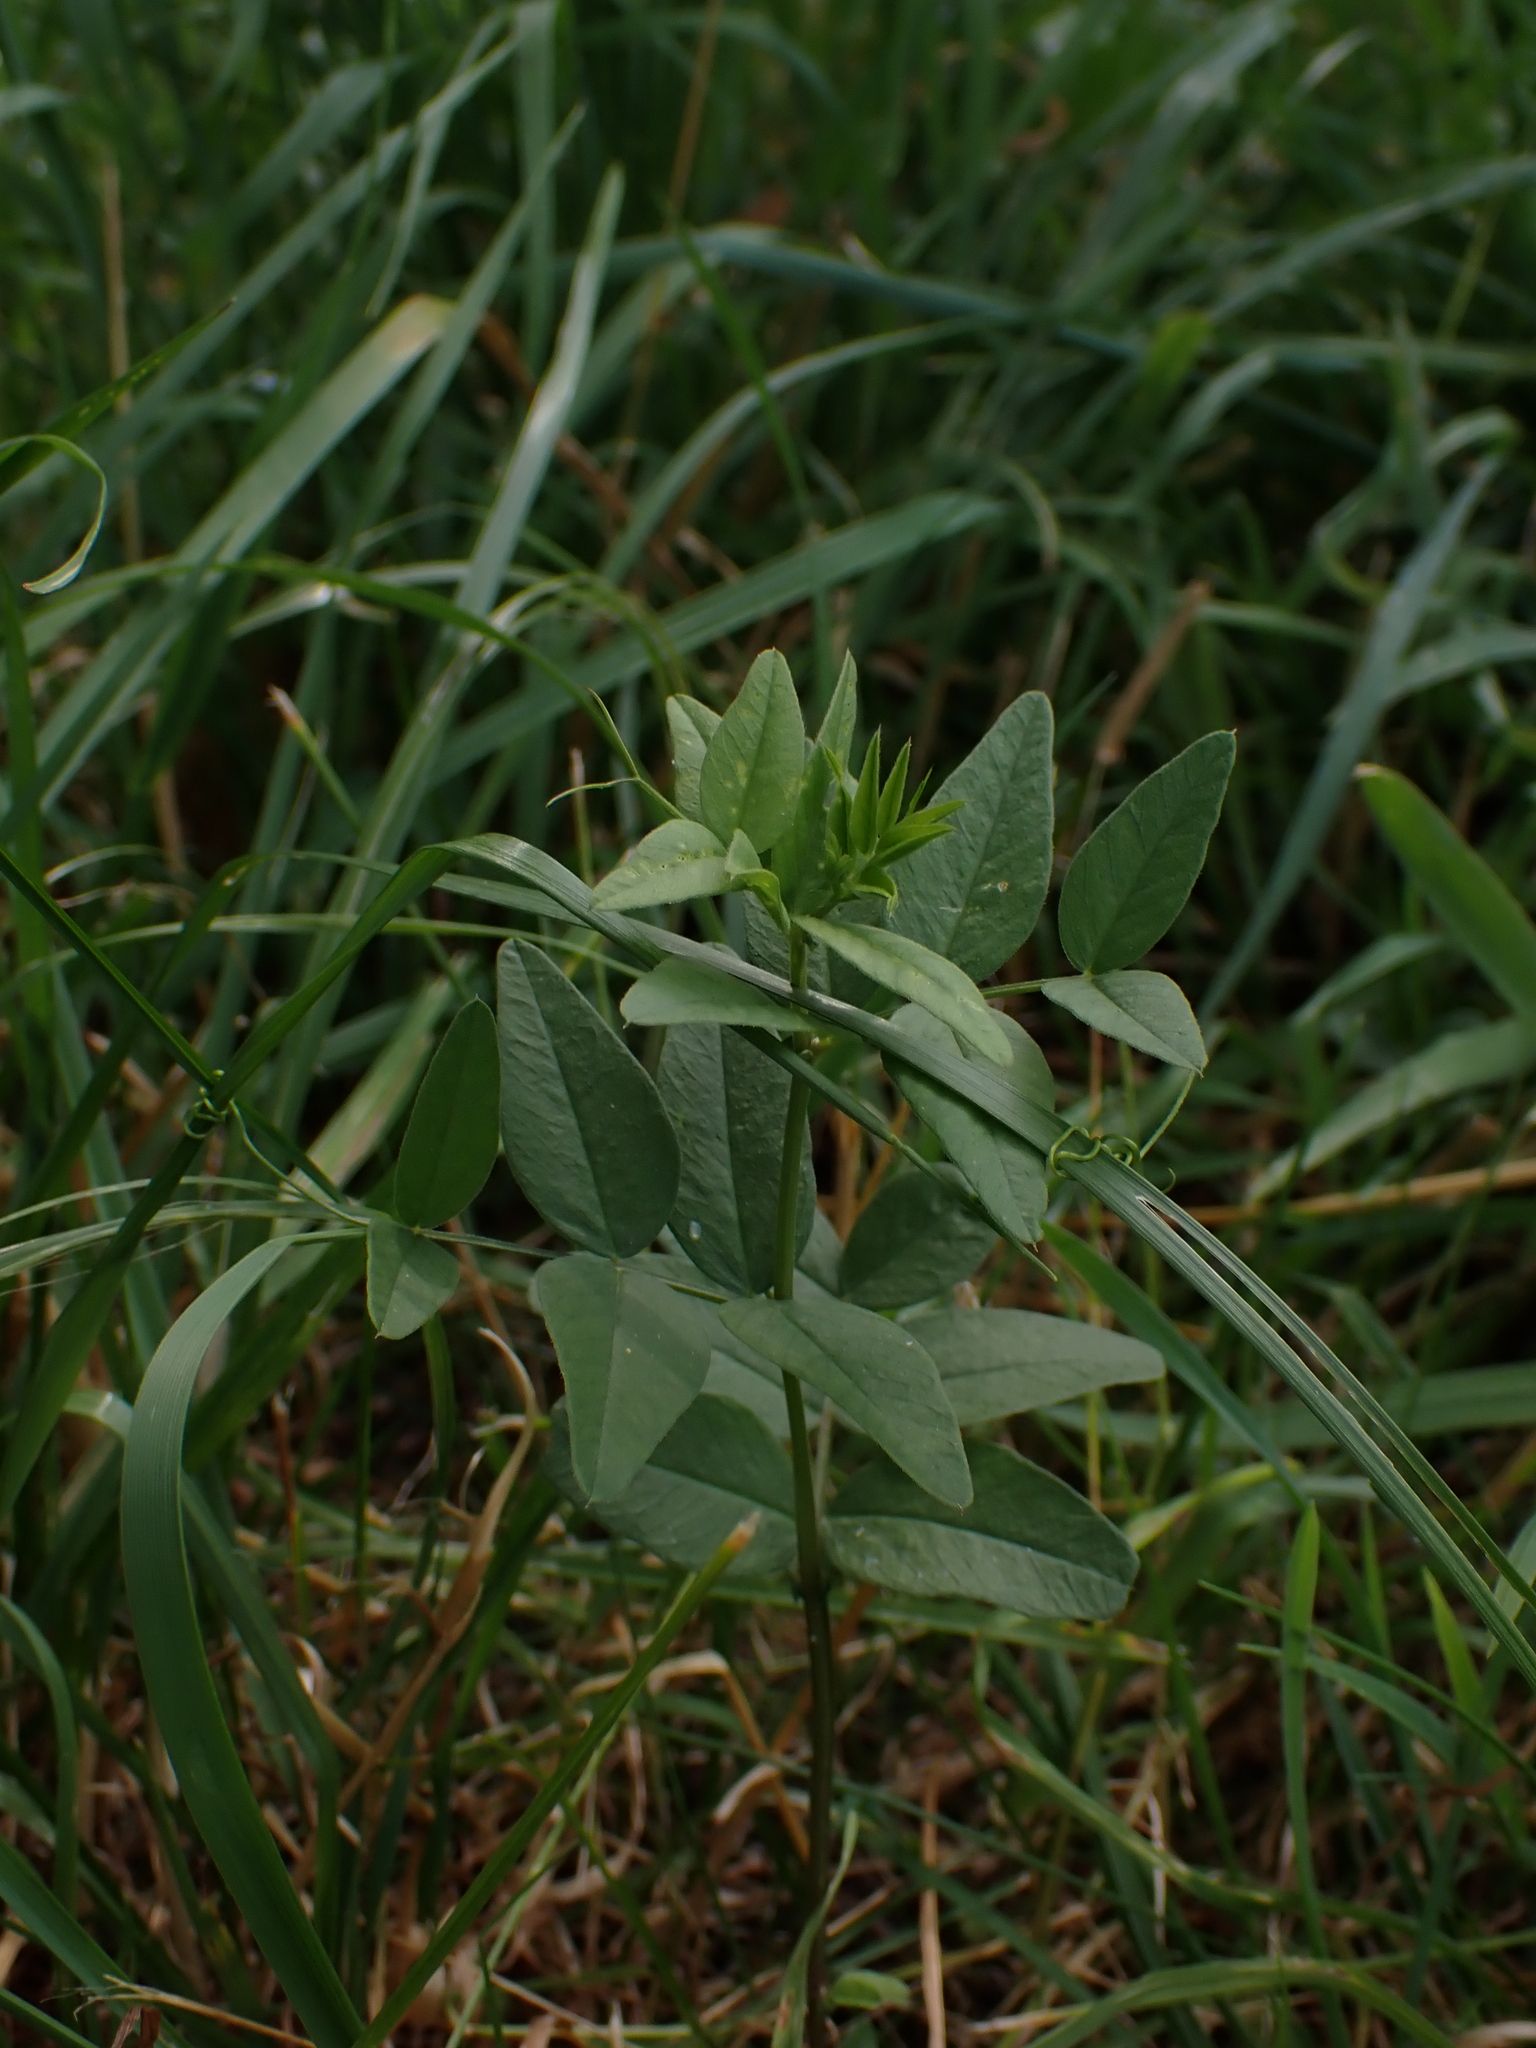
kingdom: Plantae
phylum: Tracheophyta
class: Magnoliopsida
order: Fabales
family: Fabaceae
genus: Vicia
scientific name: Vicia sepium
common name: Bush vetch
